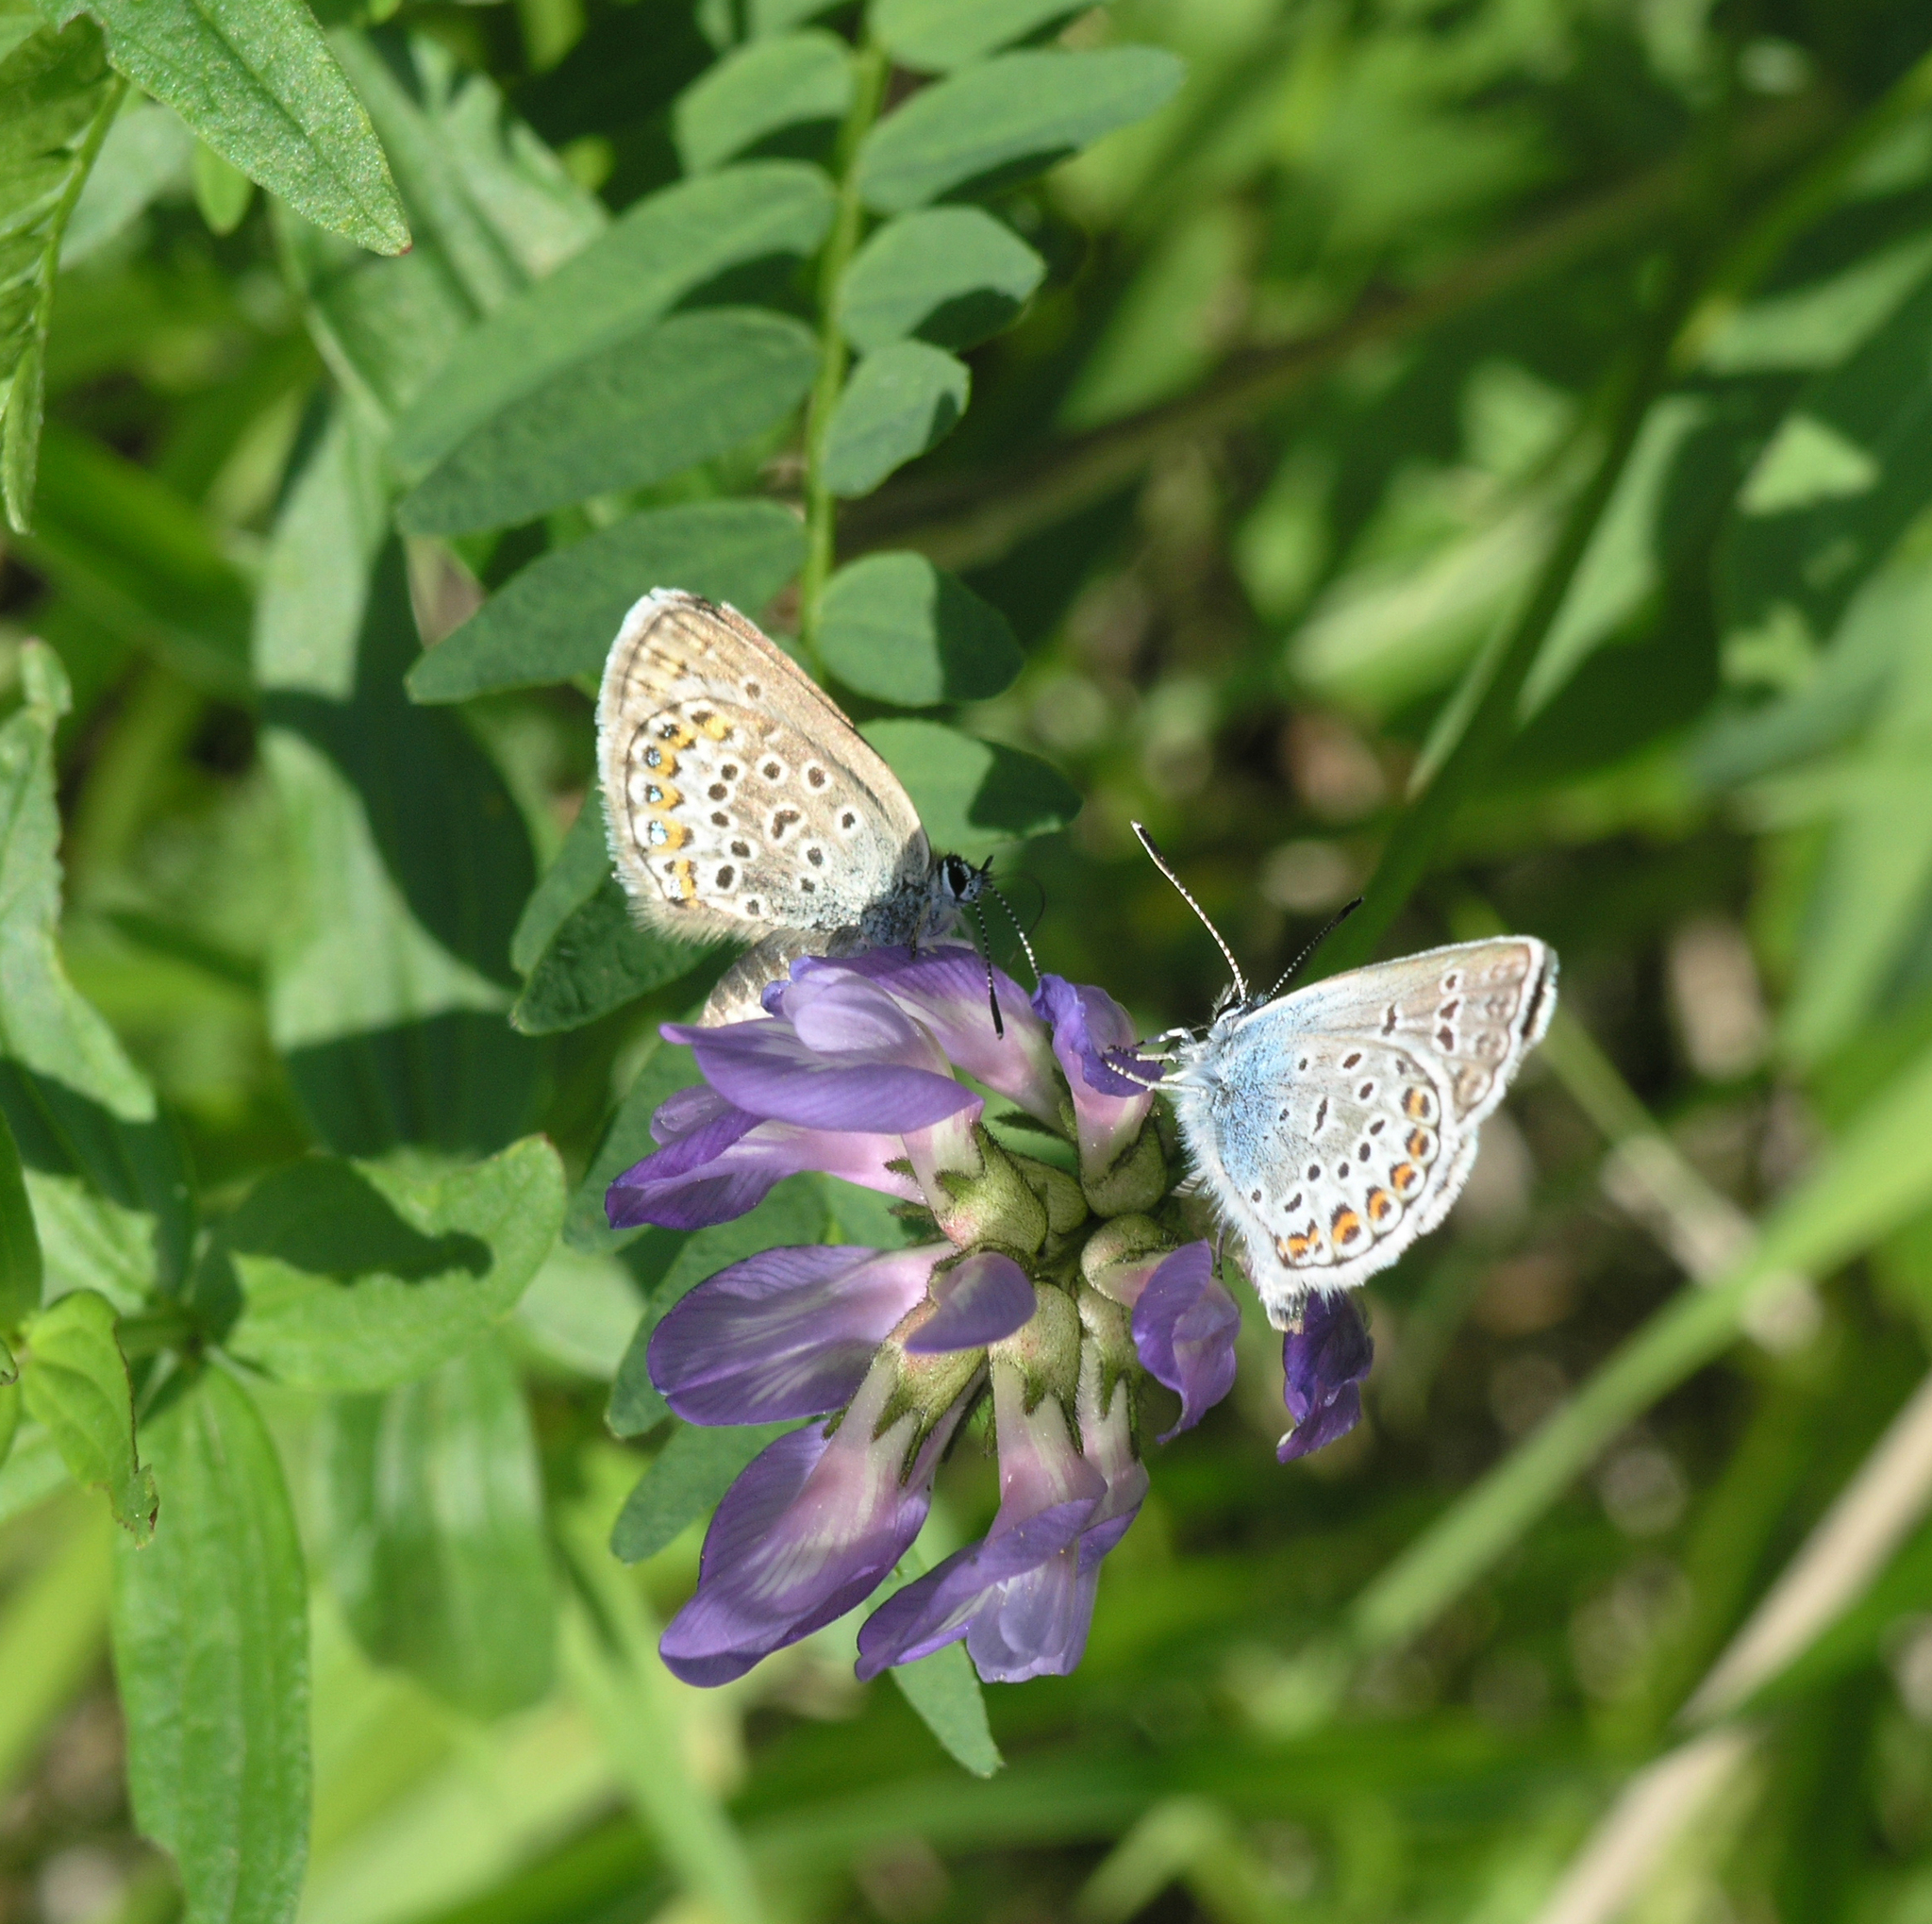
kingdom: Plantae
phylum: Tracheophyta
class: Magnoliopsida
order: Fabales
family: Fabaceae
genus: Astragalus
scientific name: Astragalus danicus
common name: Purple milk-vetch
